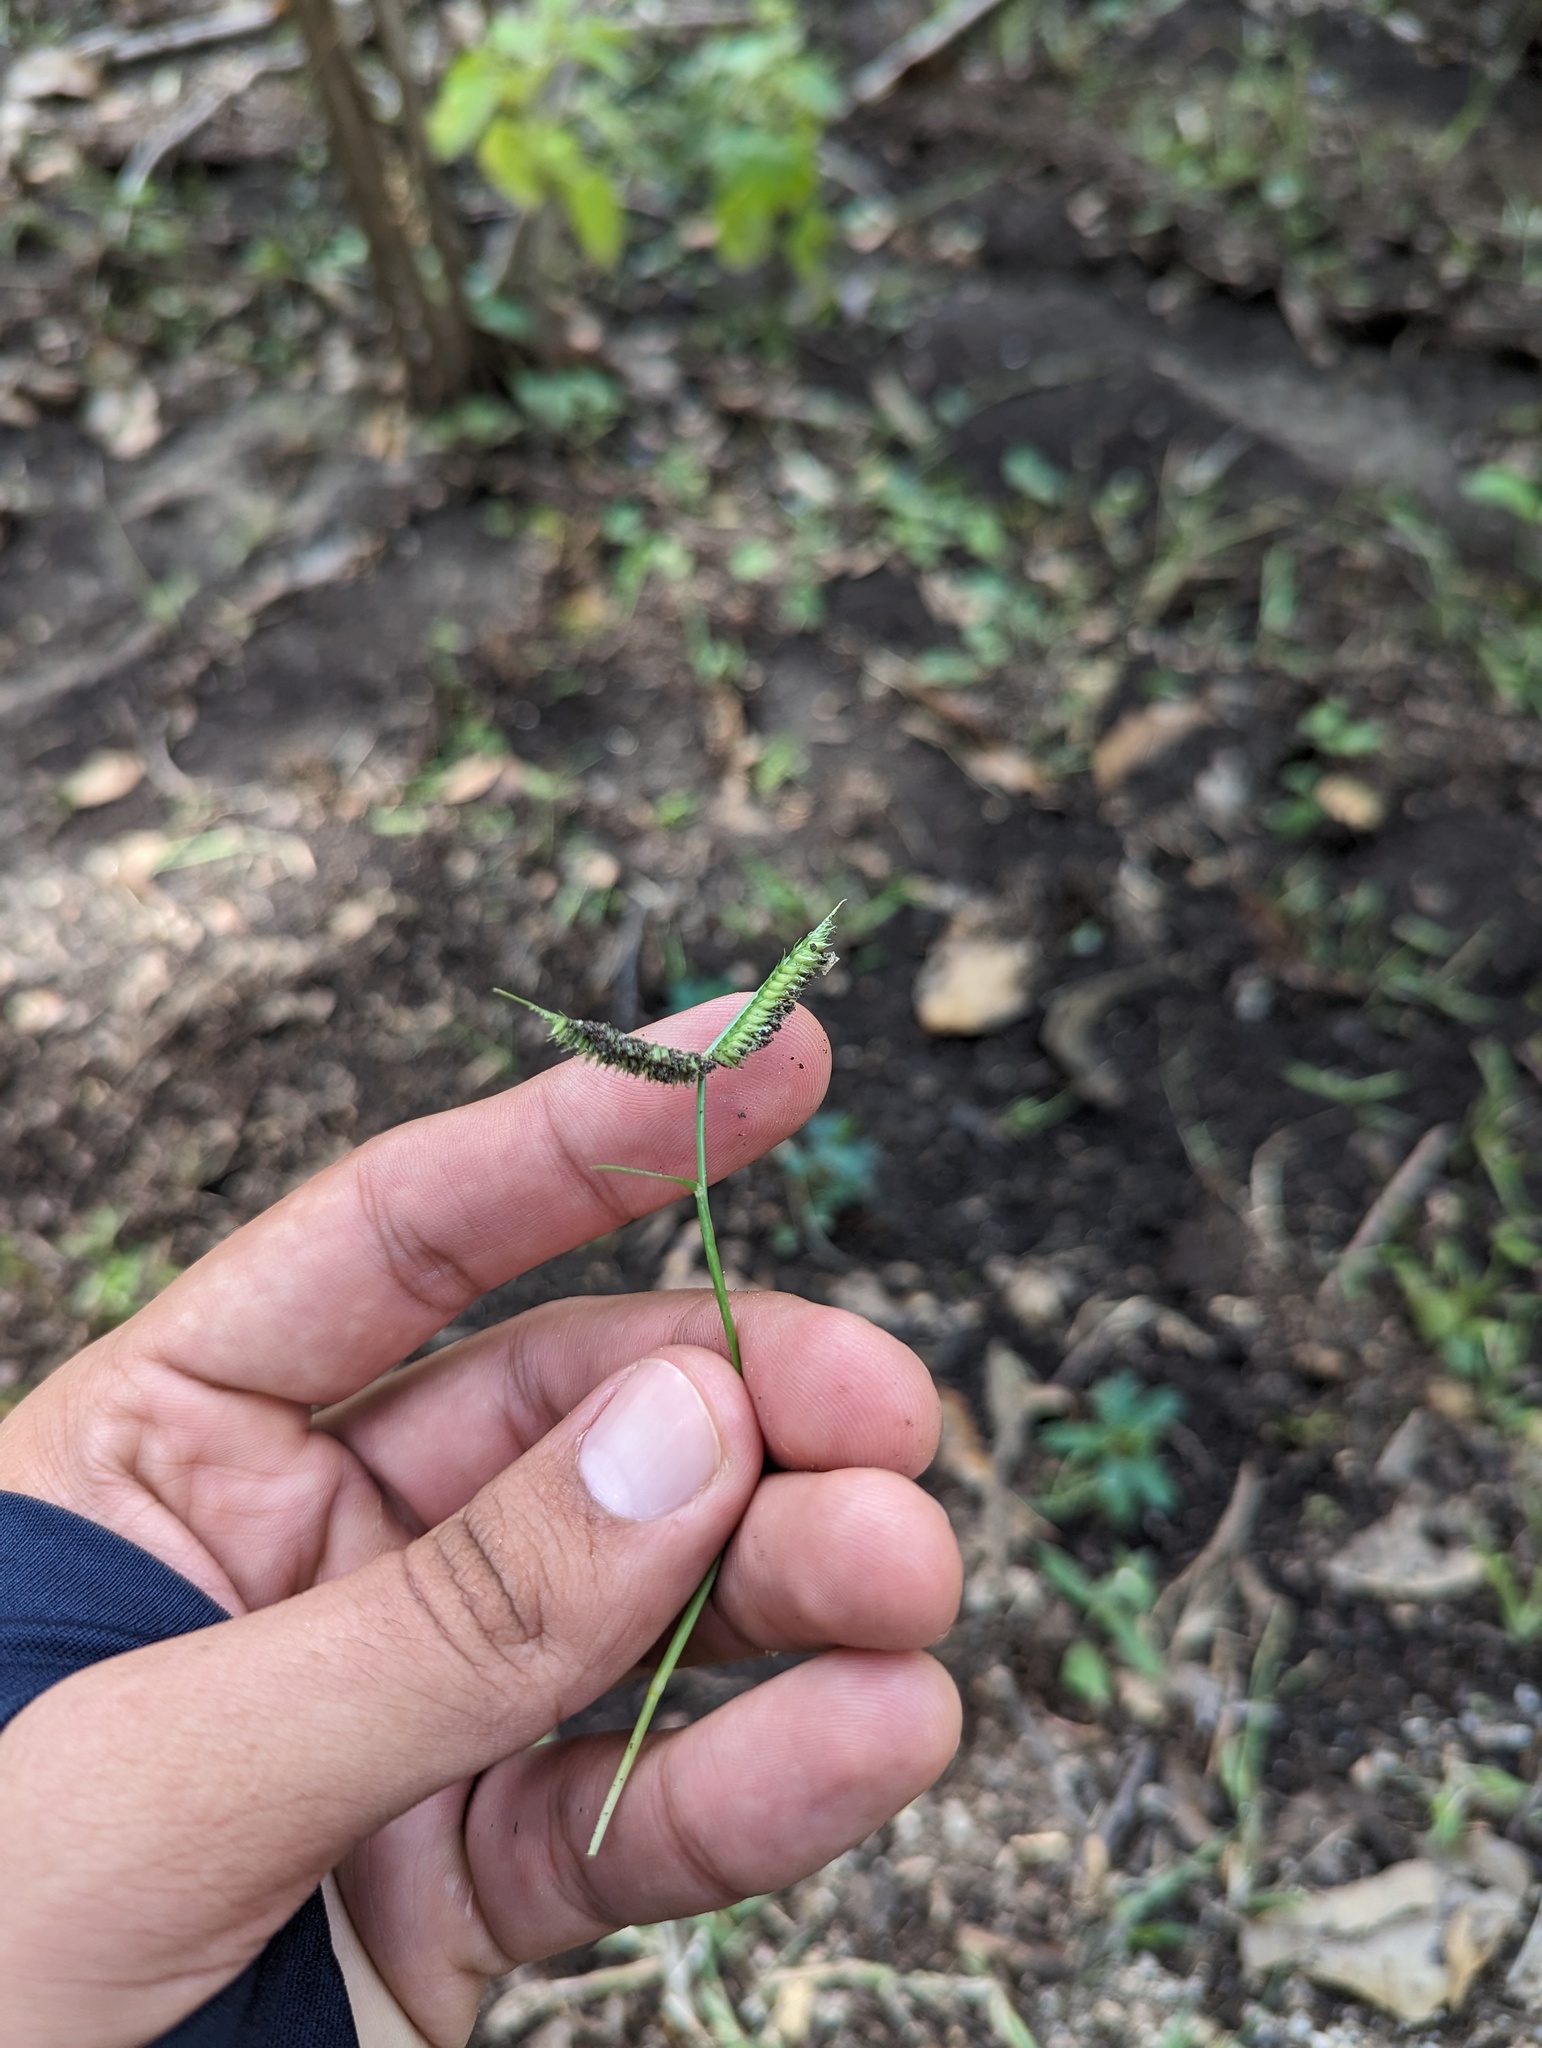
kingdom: Plantae
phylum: Tracheophyta
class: Liliopsida
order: Poales
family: Poaceae
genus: Dactyloctenium
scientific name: Dactyloctenium aegyptium
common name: Egyptian grass
